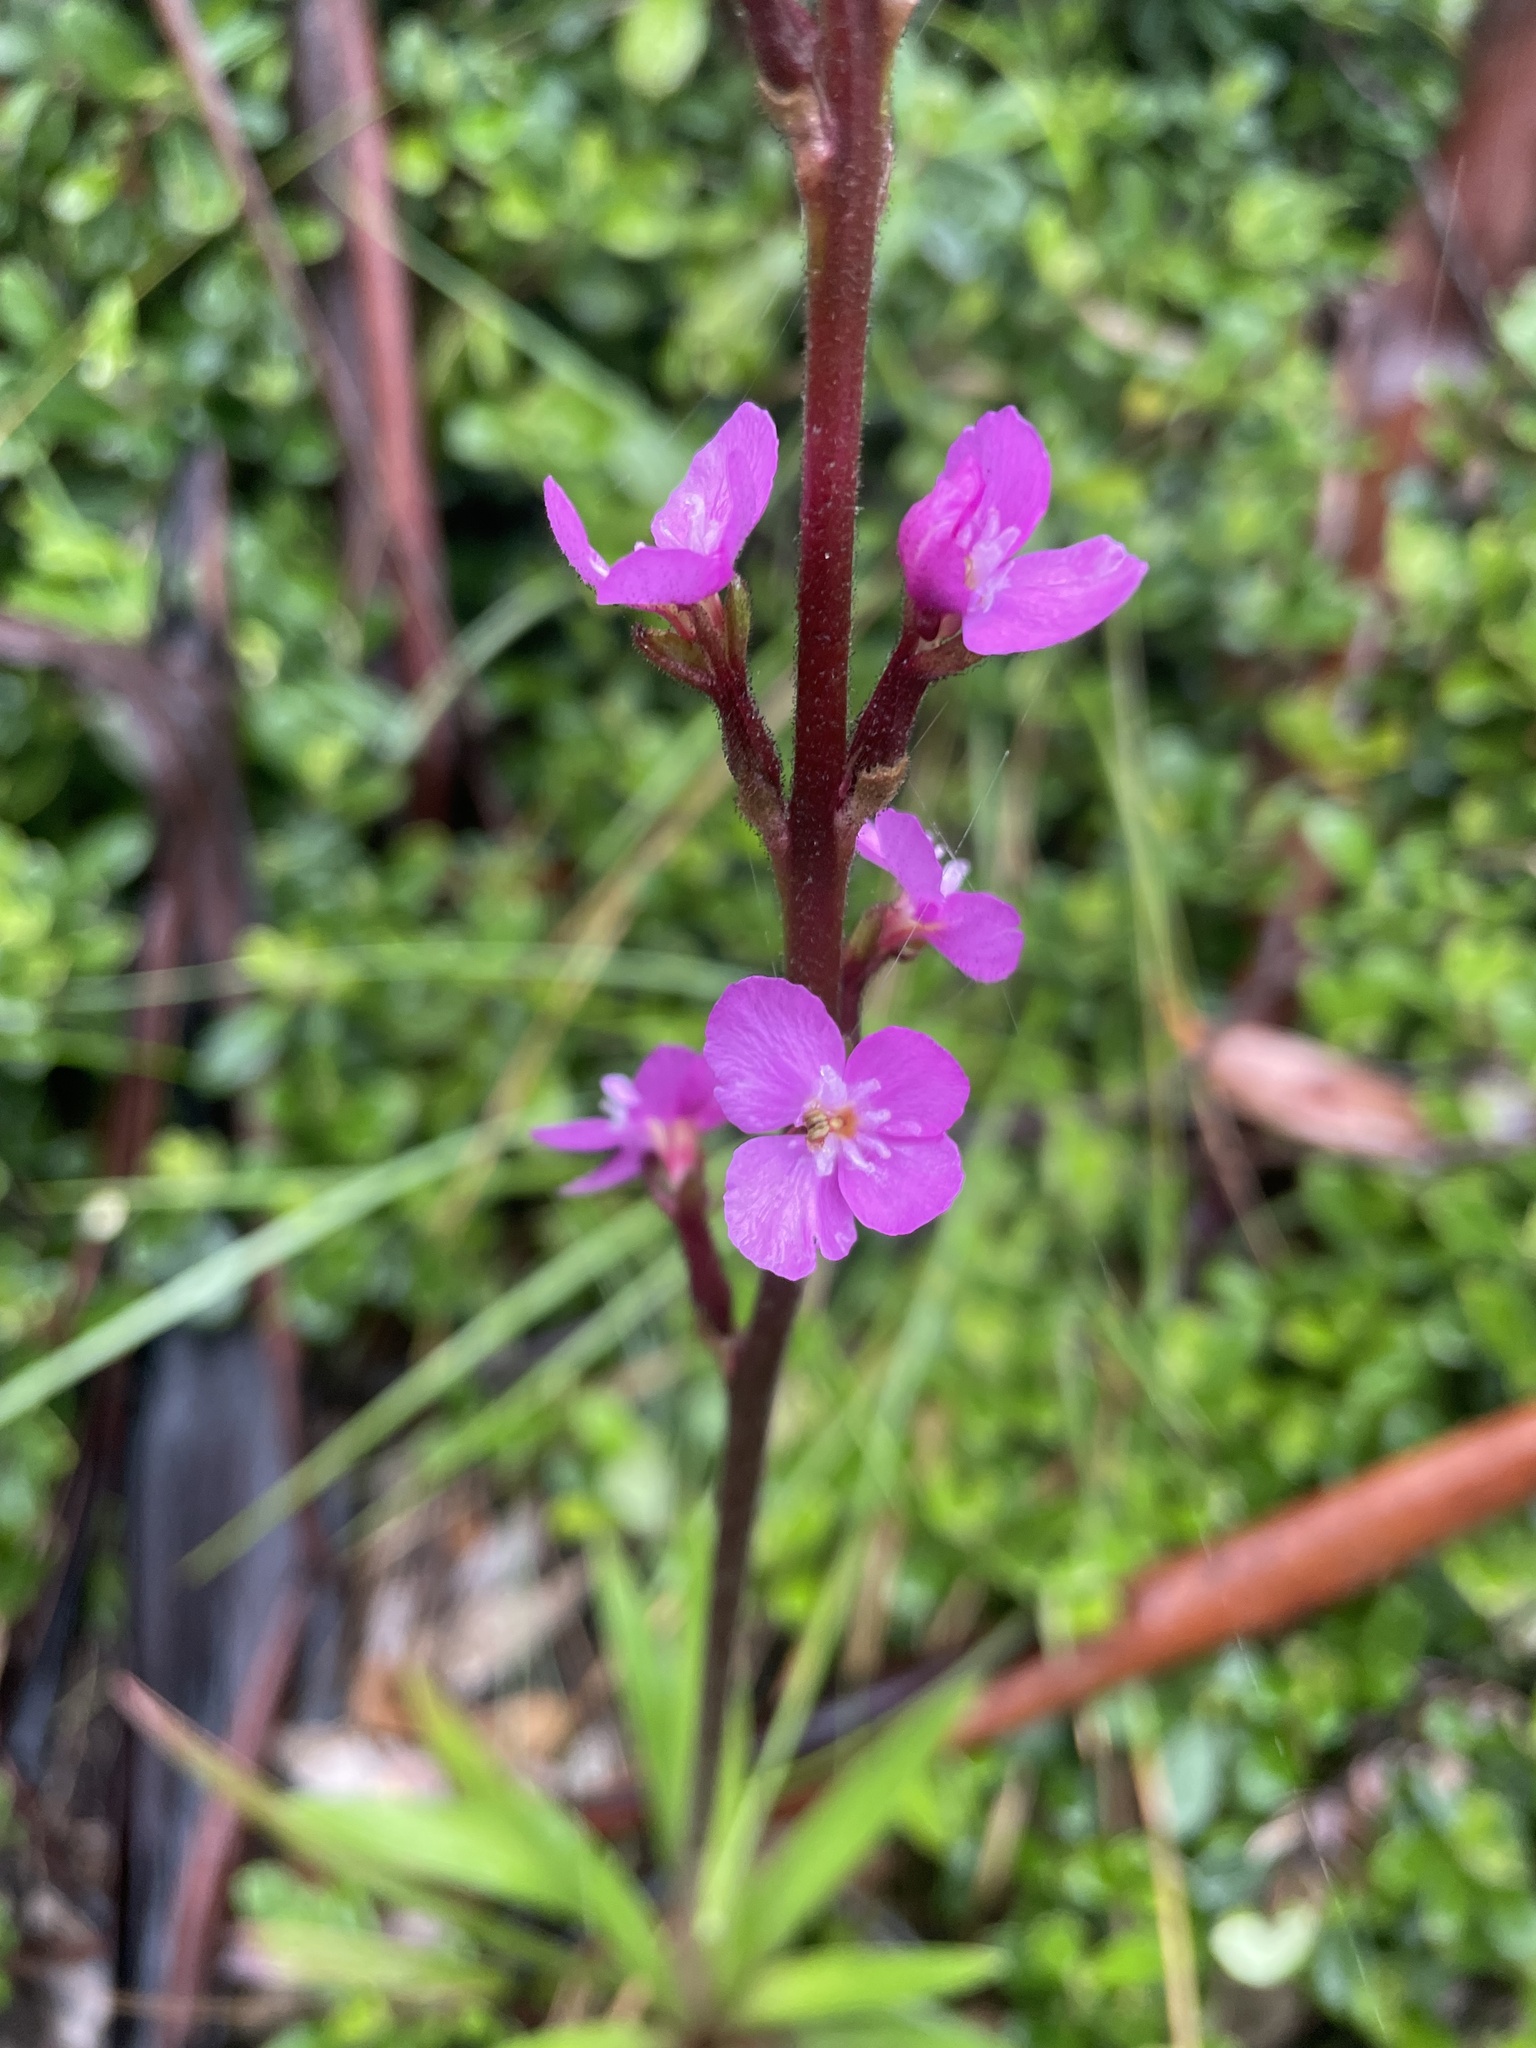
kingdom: Plantae
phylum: Tracheophyta
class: Magnoliopsida
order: Asterales
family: Stylidiaceae
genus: Stylidium
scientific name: Stylidium armeria
